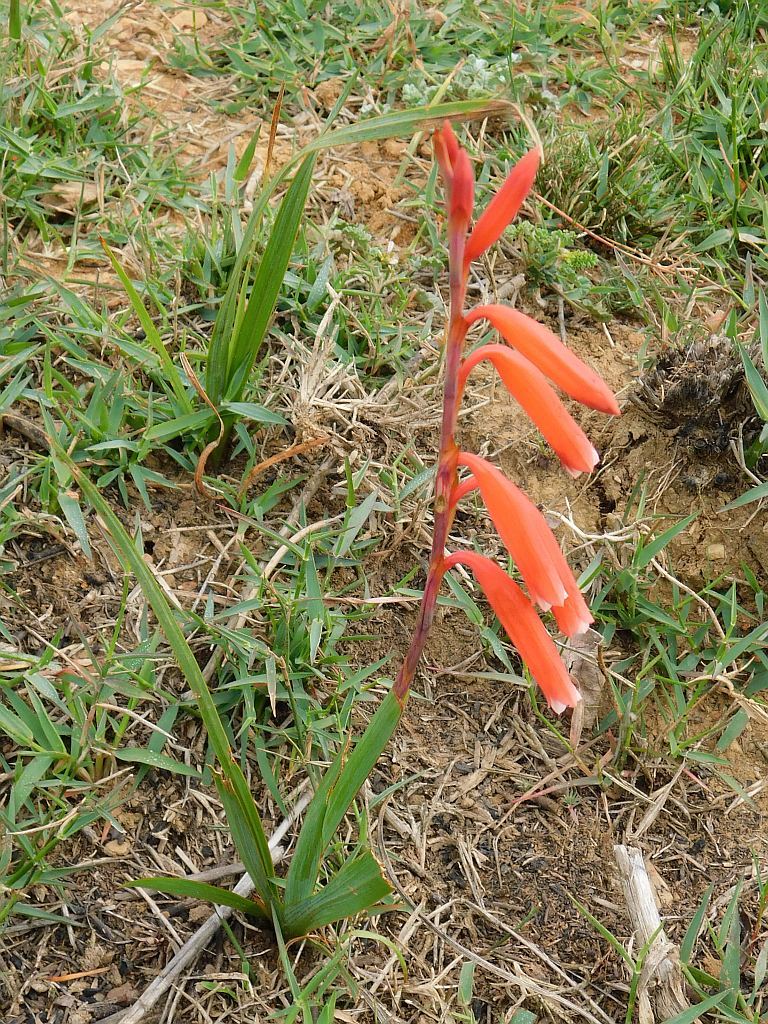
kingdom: Plantae
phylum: Tracheophyta
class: Liliopsida
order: Asparagales
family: Iridaceae
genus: Watsonia
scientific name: Watsonia aletroides
